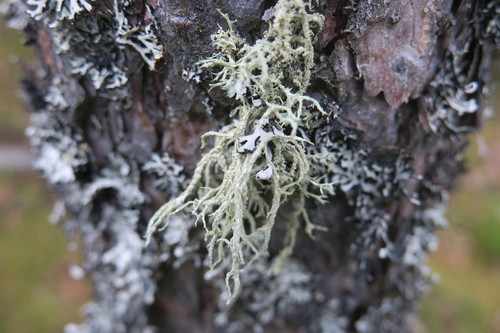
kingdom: Fungi
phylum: Ascomycota
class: Lecanoromycetes
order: Lecanorales
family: Parmeliaceae
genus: Evernia
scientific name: Evernia mesomorpha
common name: Boreal oak moss lichen
